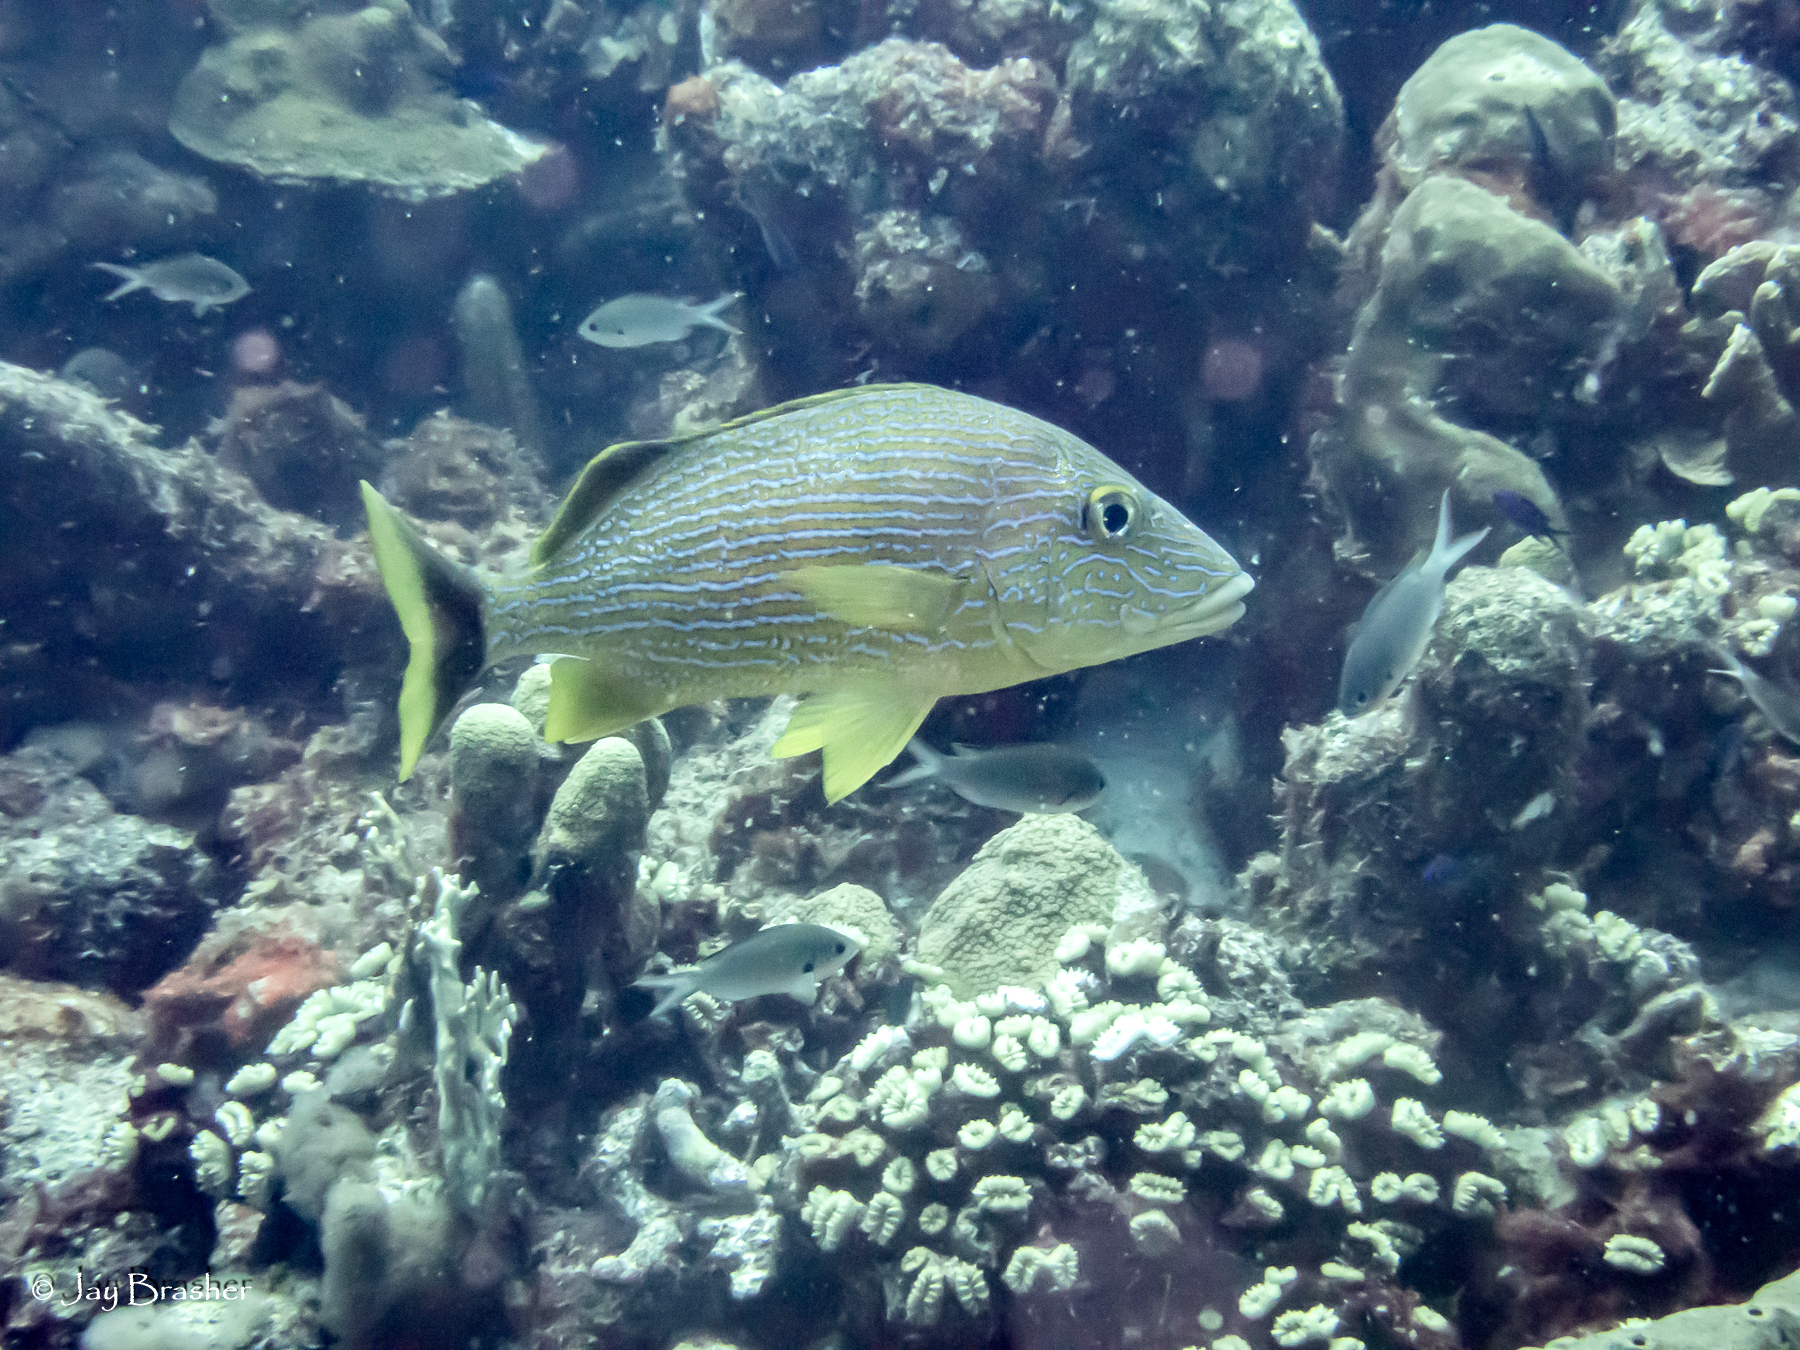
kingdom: Animalia
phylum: Chordata
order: Perciformes
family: Pomacentridae
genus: Chromis
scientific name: Chromis multilineata
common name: Brown chromis
